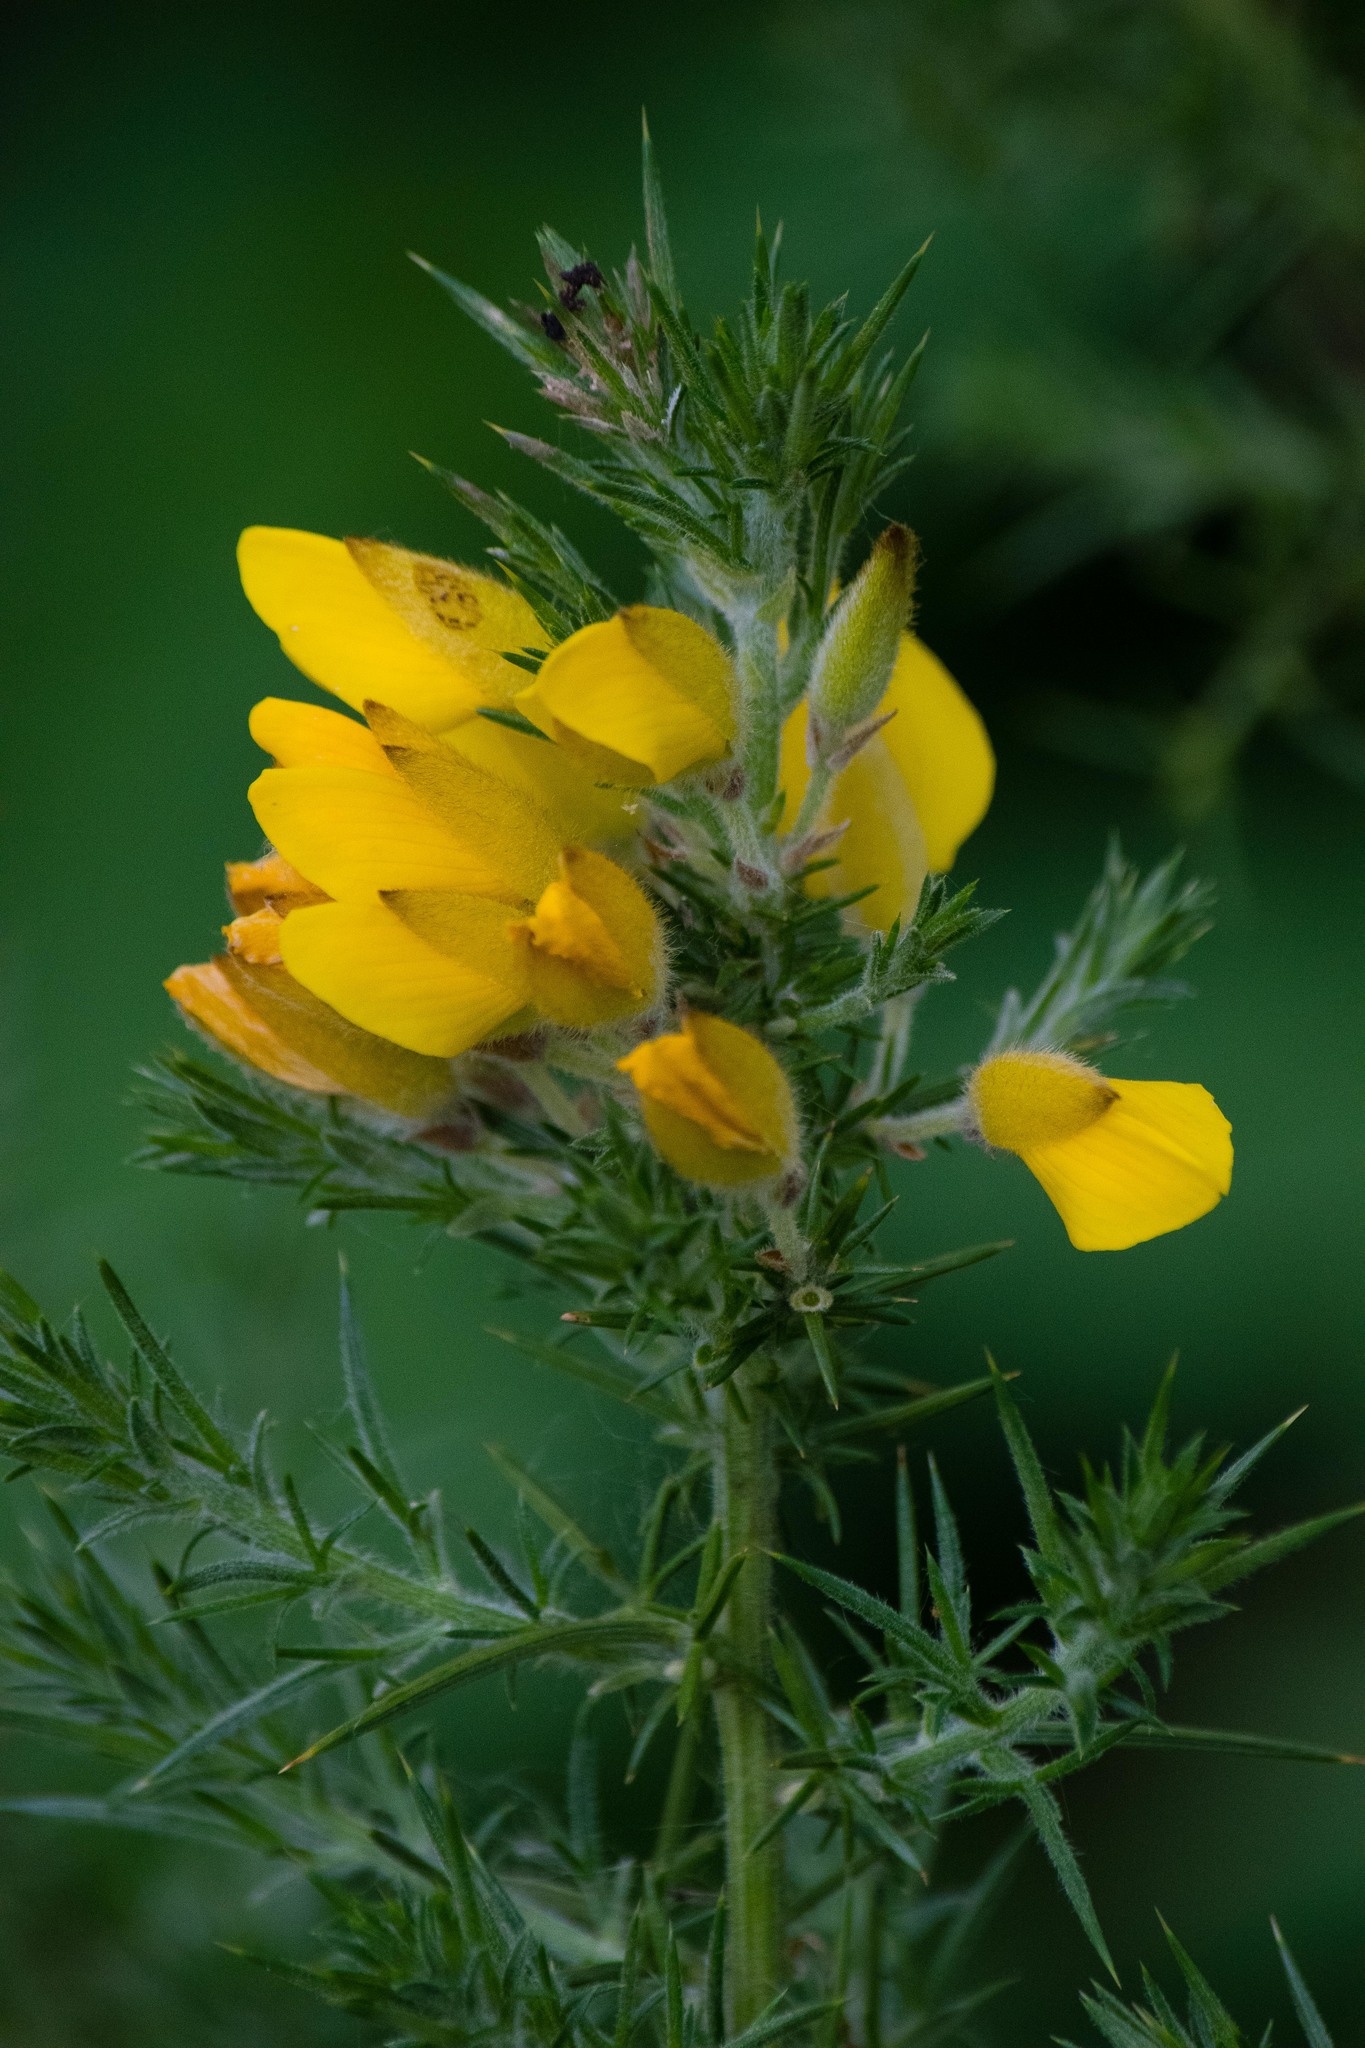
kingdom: Plantae
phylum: Tracheophyta
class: Magnoliopsida
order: Fabales
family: Fabaceae
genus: Ulex
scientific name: Ulex europaeus
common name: Common gorse
